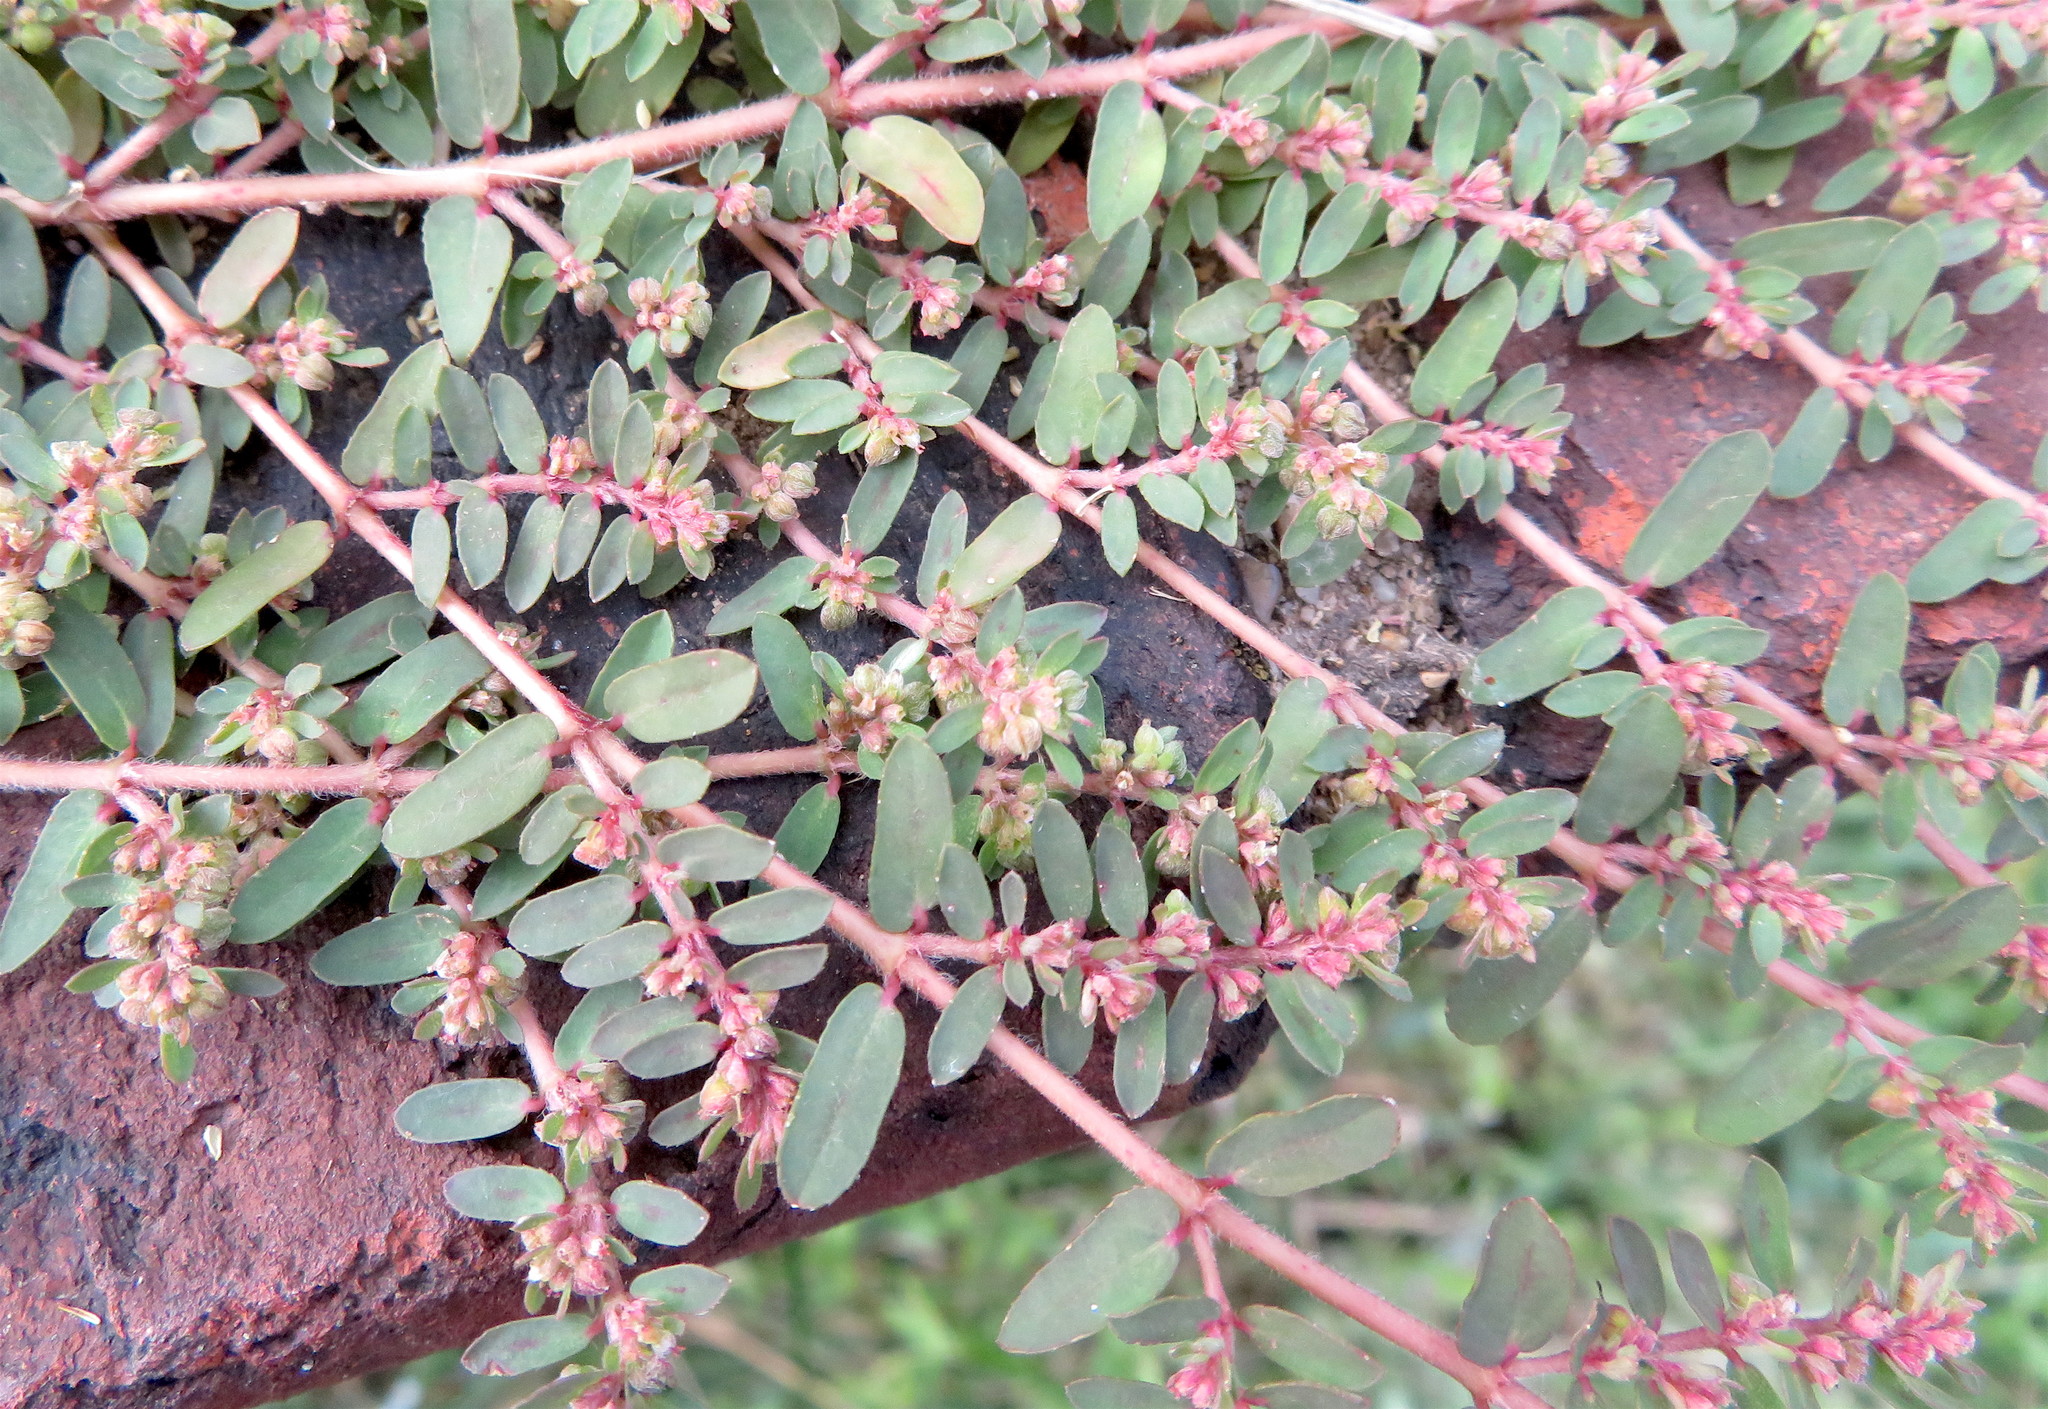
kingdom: Plantae
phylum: Tracheophyta
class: Magnoliopsida
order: Malpighiales
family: Euphorbiaceae
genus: Euphorbia
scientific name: Euphorbia maculata
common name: Spotted spurge
